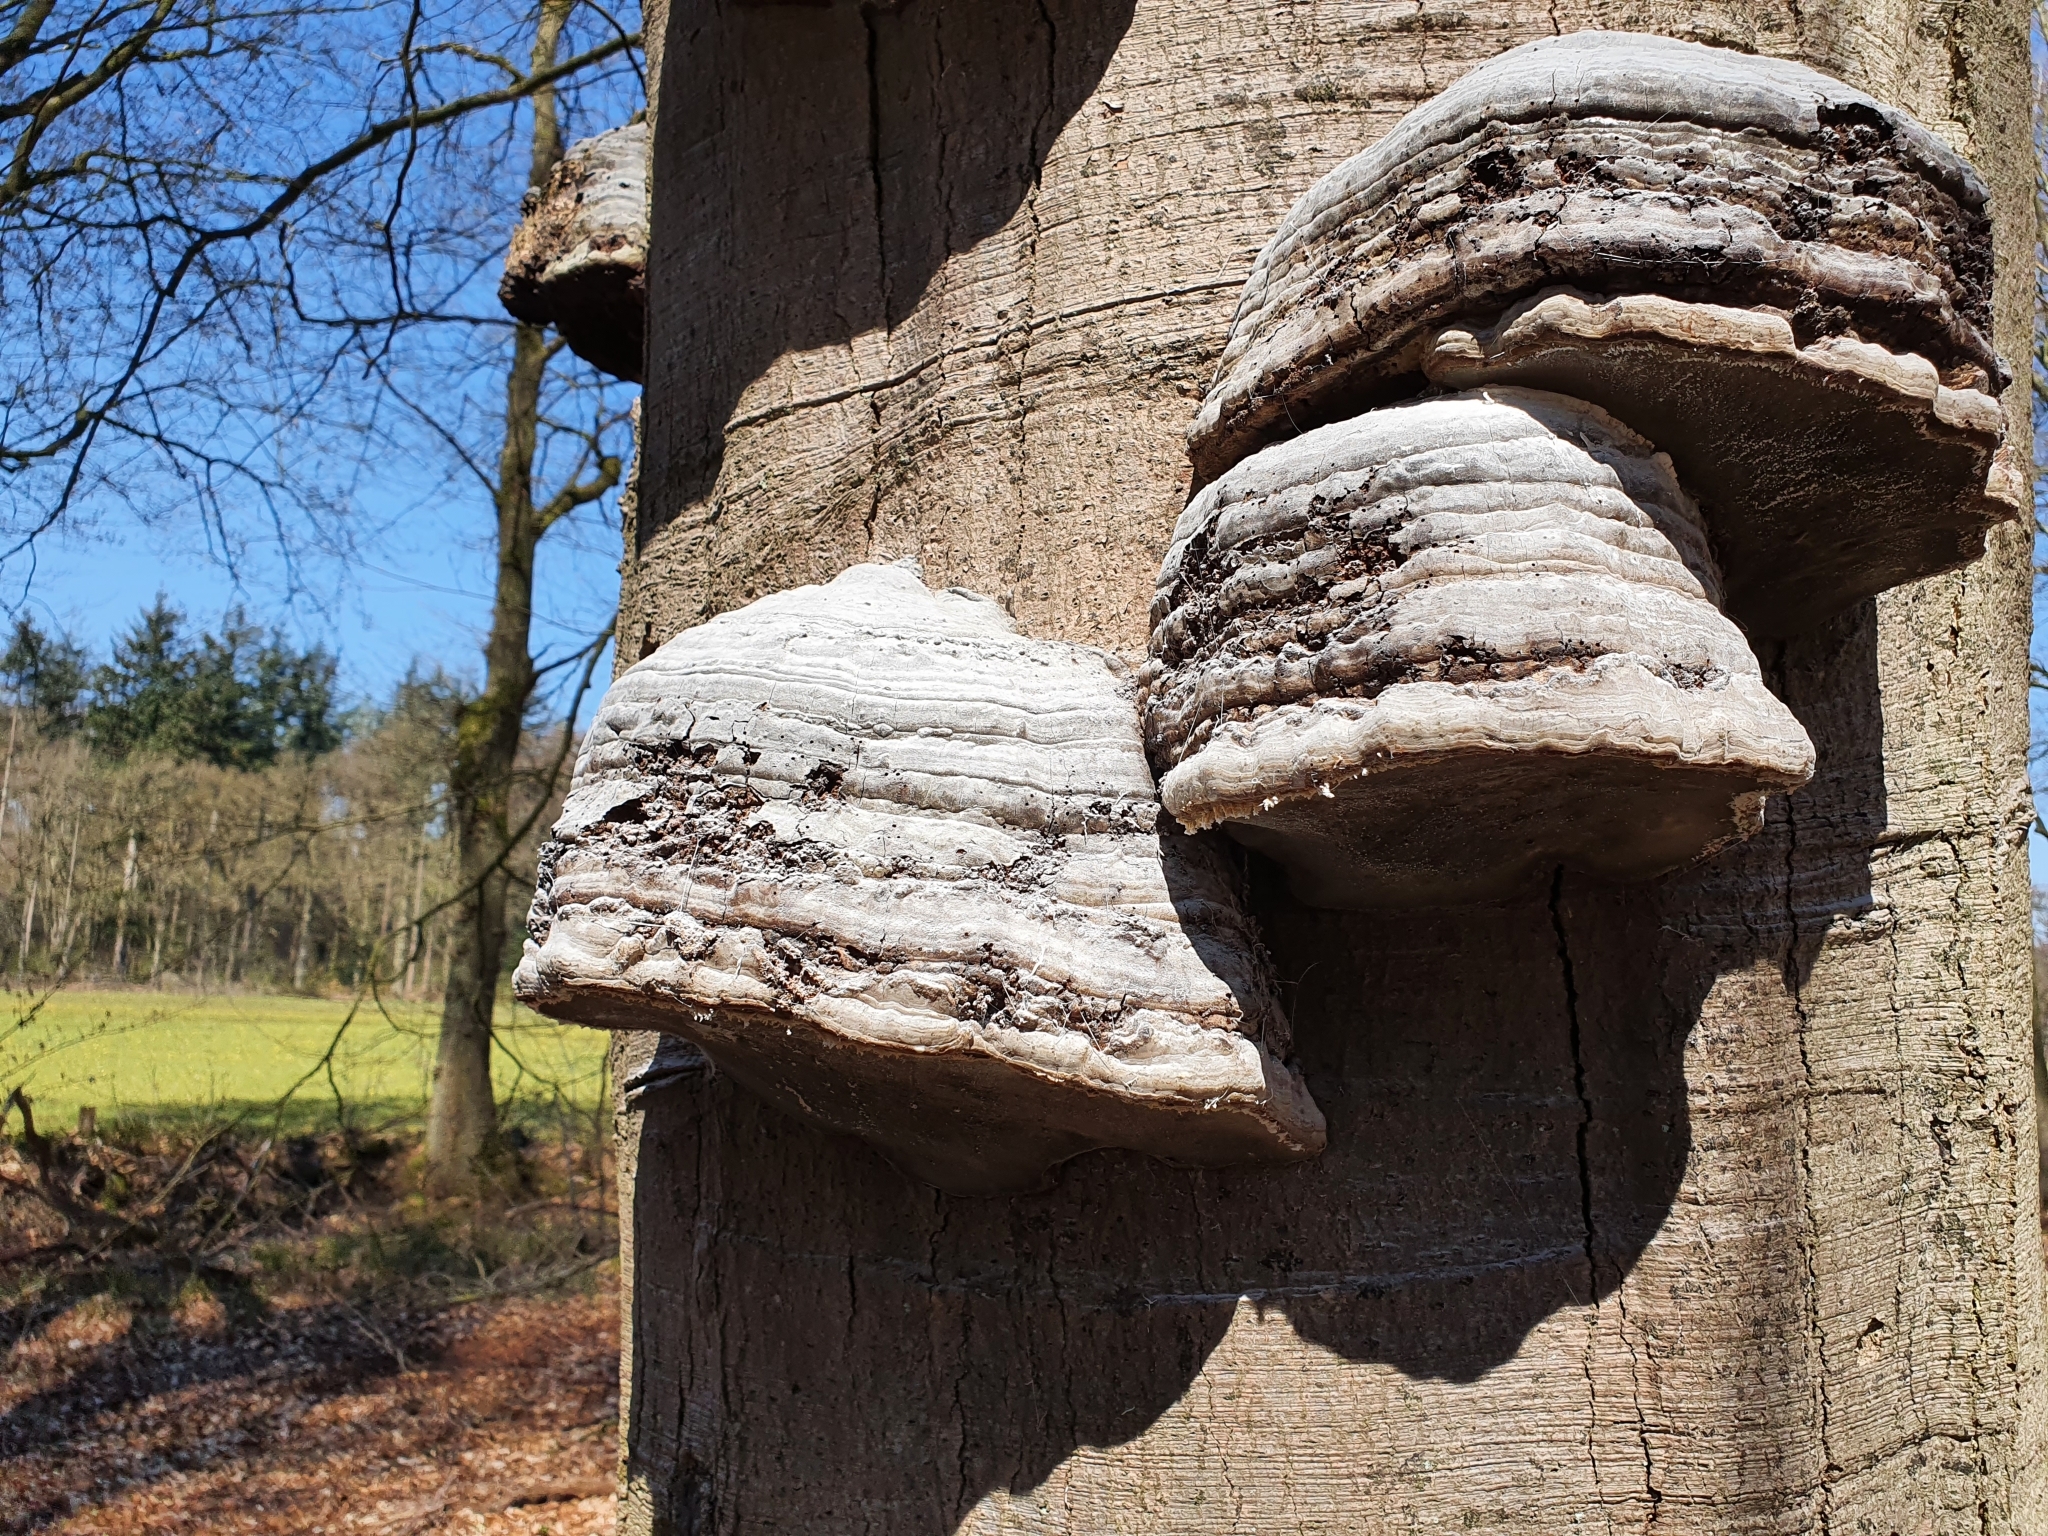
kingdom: Fungi
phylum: Basidiomycota
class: Agaricomycetes
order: Polyporales
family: Polyporaceae
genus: Fomes
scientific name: Fomes fomentarius
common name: Hoof fungus
